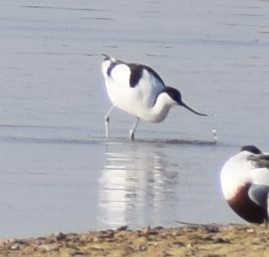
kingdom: Animalia
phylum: Chordata
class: Aves
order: Charadriiformes
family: Recurvirostridae
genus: Recurvirostra
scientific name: Recurvirostra avosetta
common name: Pied avocet
